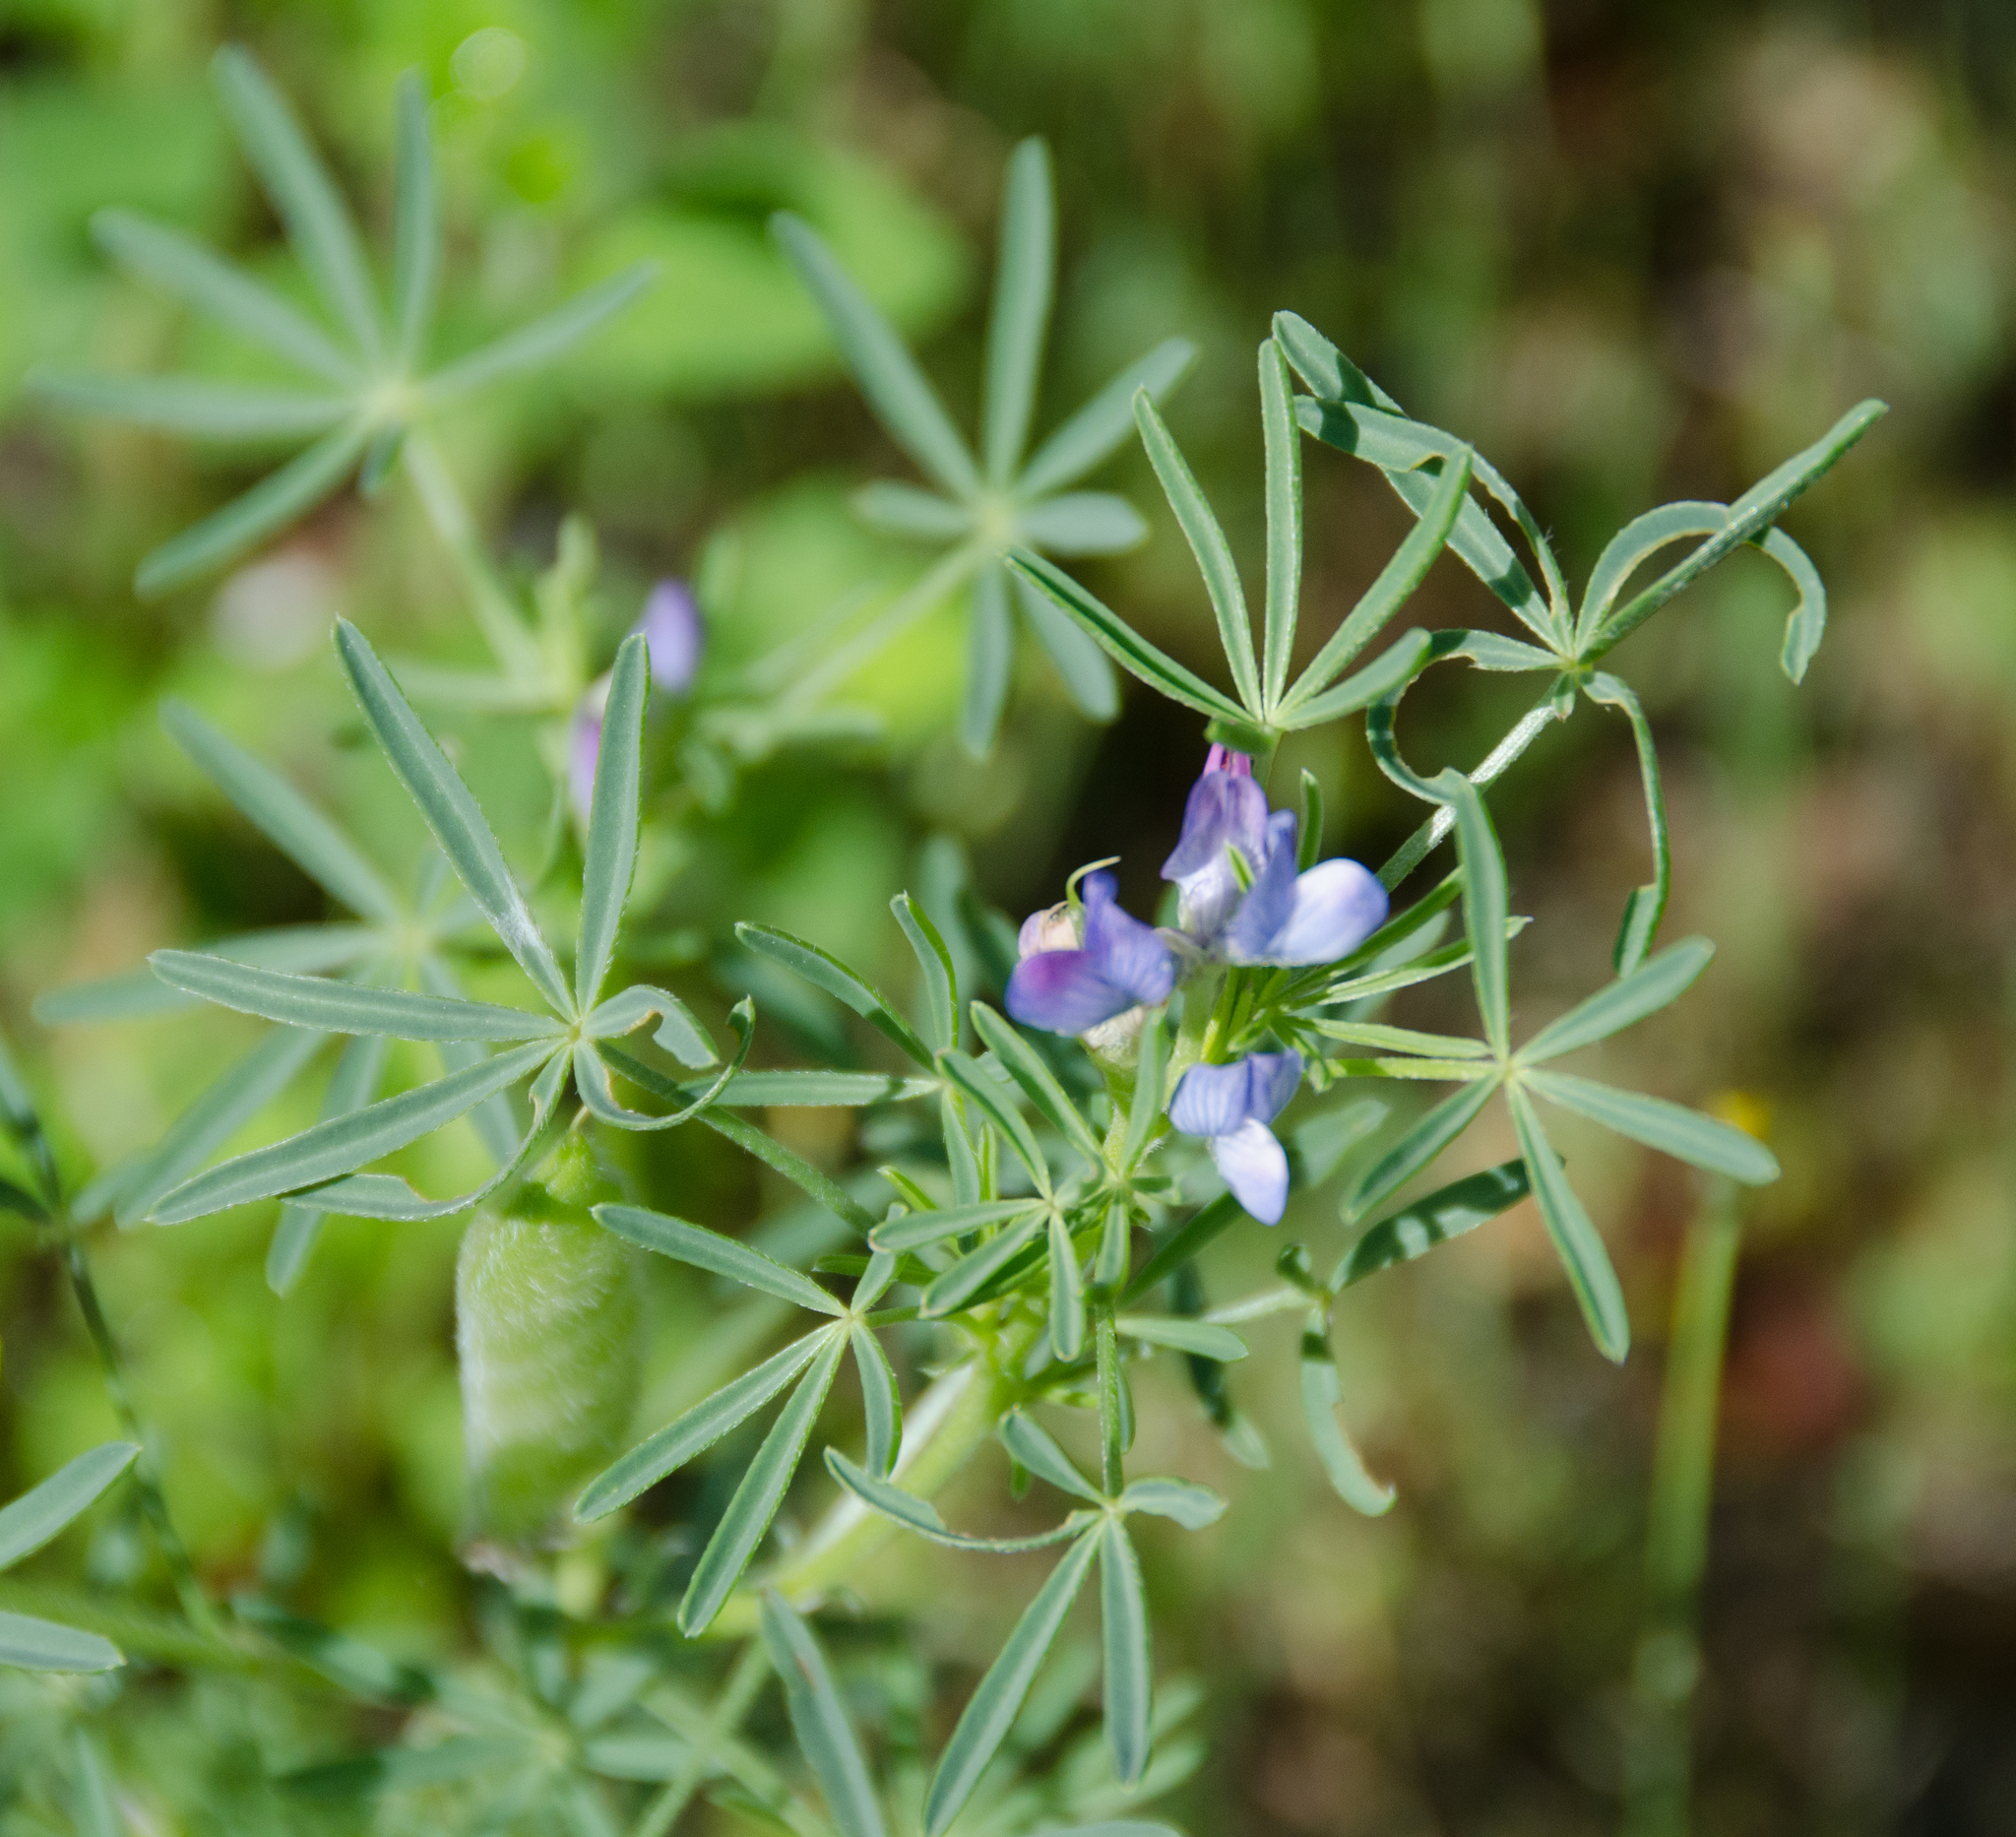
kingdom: Plantae
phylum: Tracheophyta
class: Magnoliopsida
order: Fabales
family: Fabaceae
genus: Lupinus
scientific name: Lupinus angustifolius
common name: Narrow-leaved lupin
